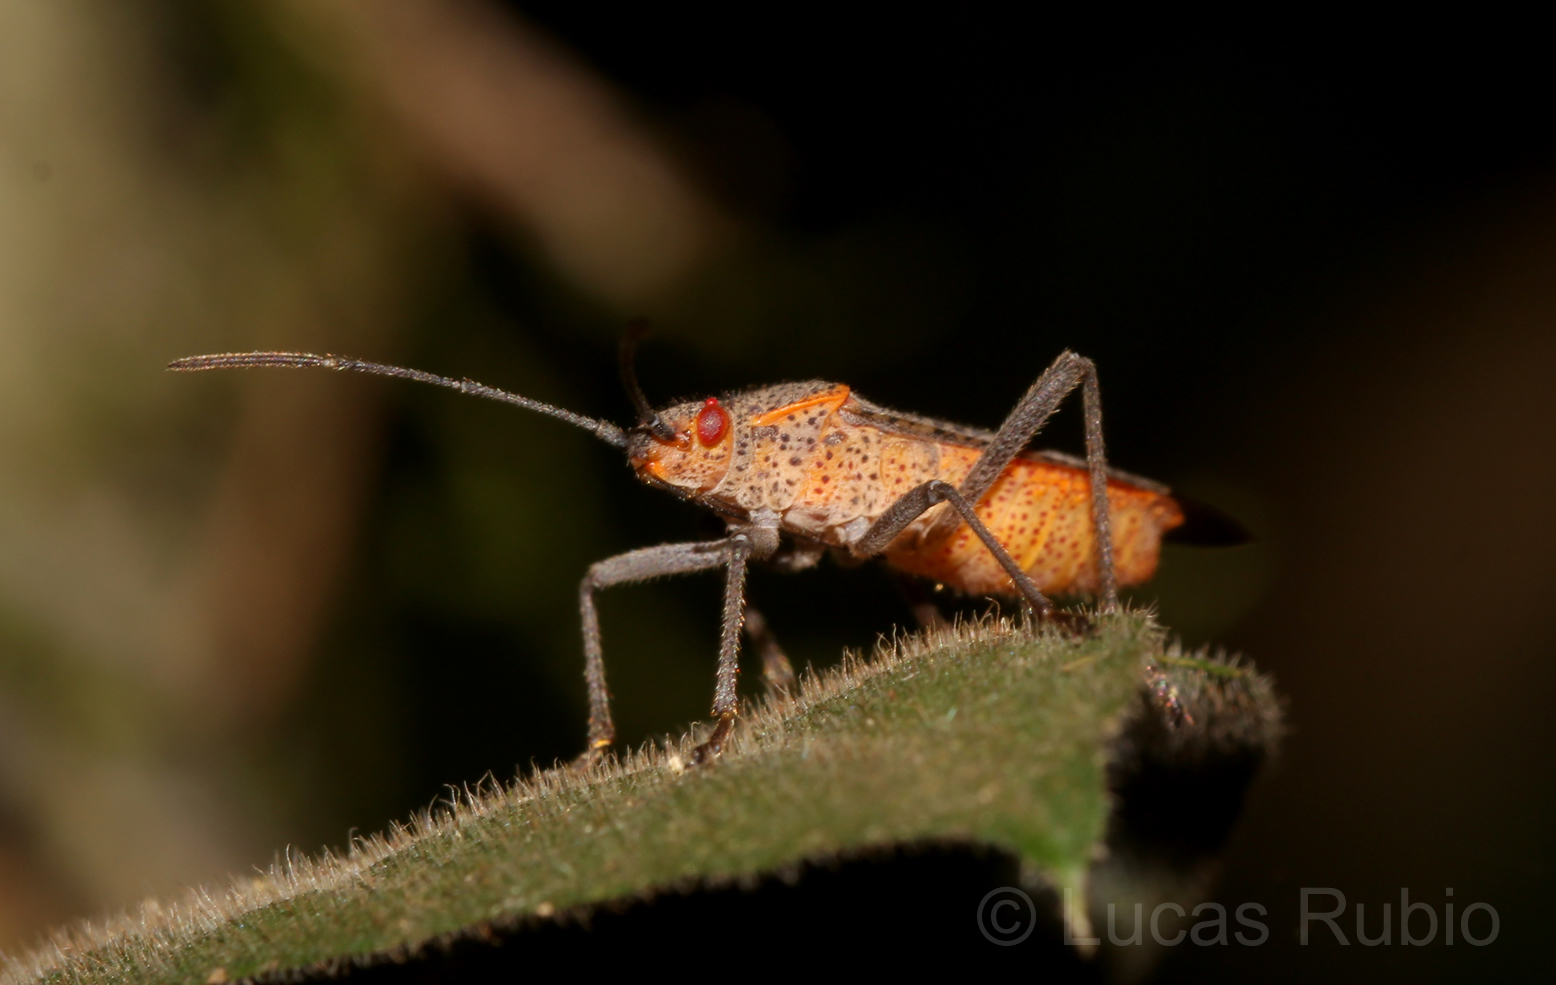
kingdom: Animalia
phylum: Arthropoda
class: Insecta
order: Hemiptera
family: Rhopalidae
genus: Jadera
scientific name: Jadera coturnix
